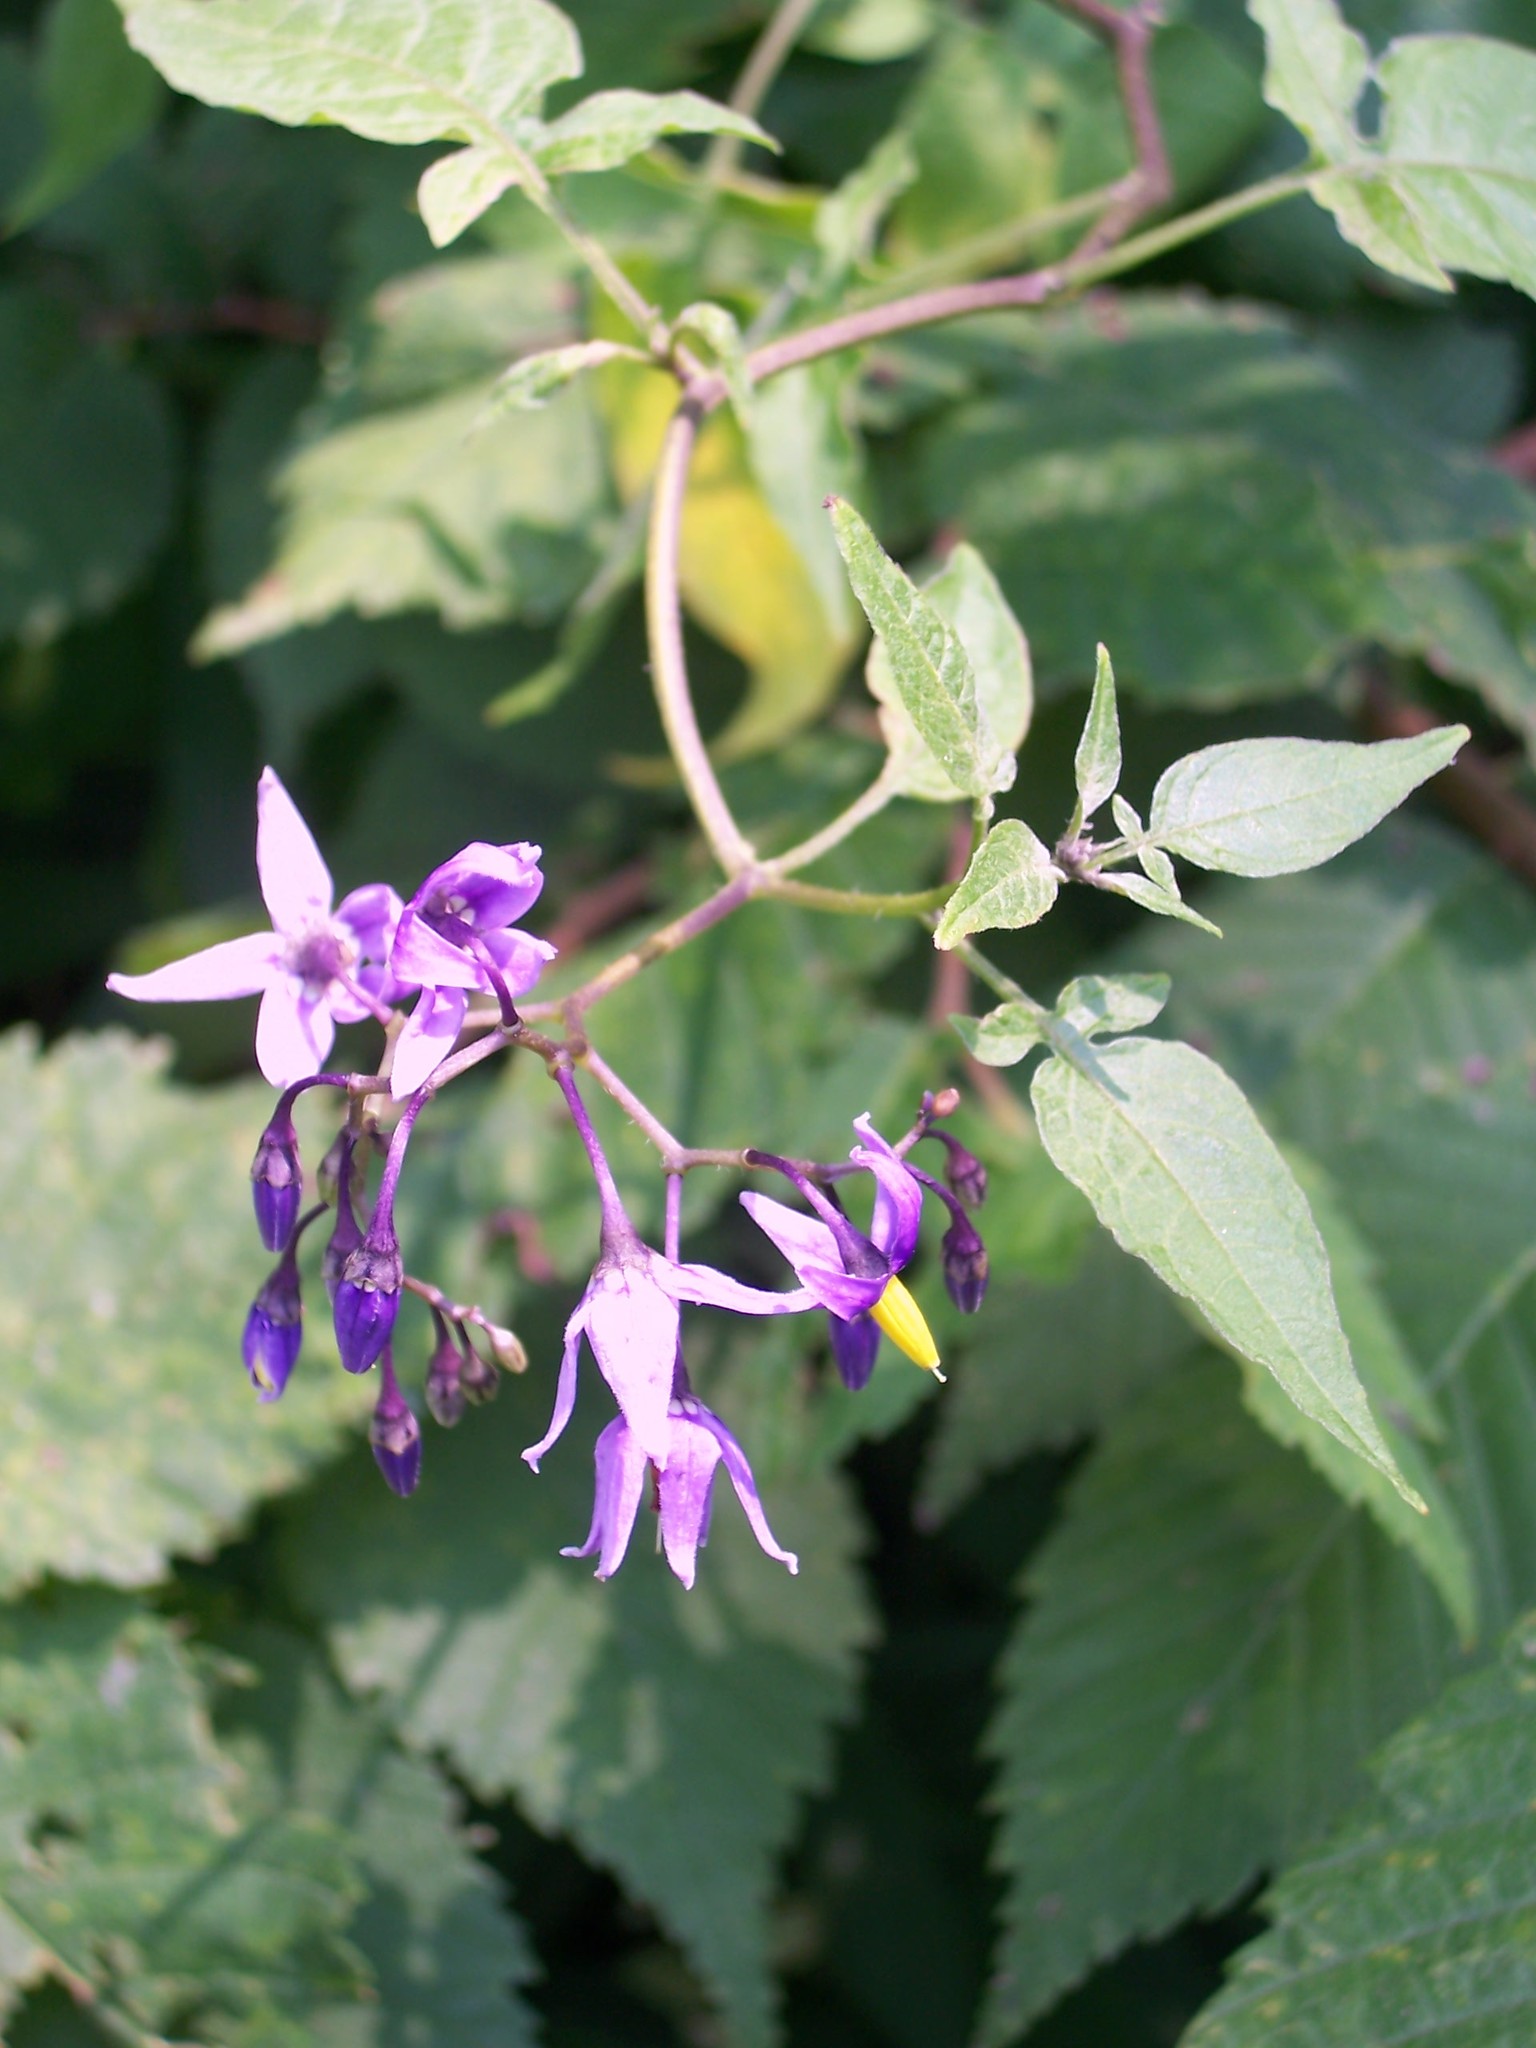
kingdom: Plantae
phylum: Tracheophyta
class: Magnoliopsida
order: Solanales
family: Solanaceae
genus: Solanum
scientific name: Solanum dulcamara
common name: Climbing nightshade
